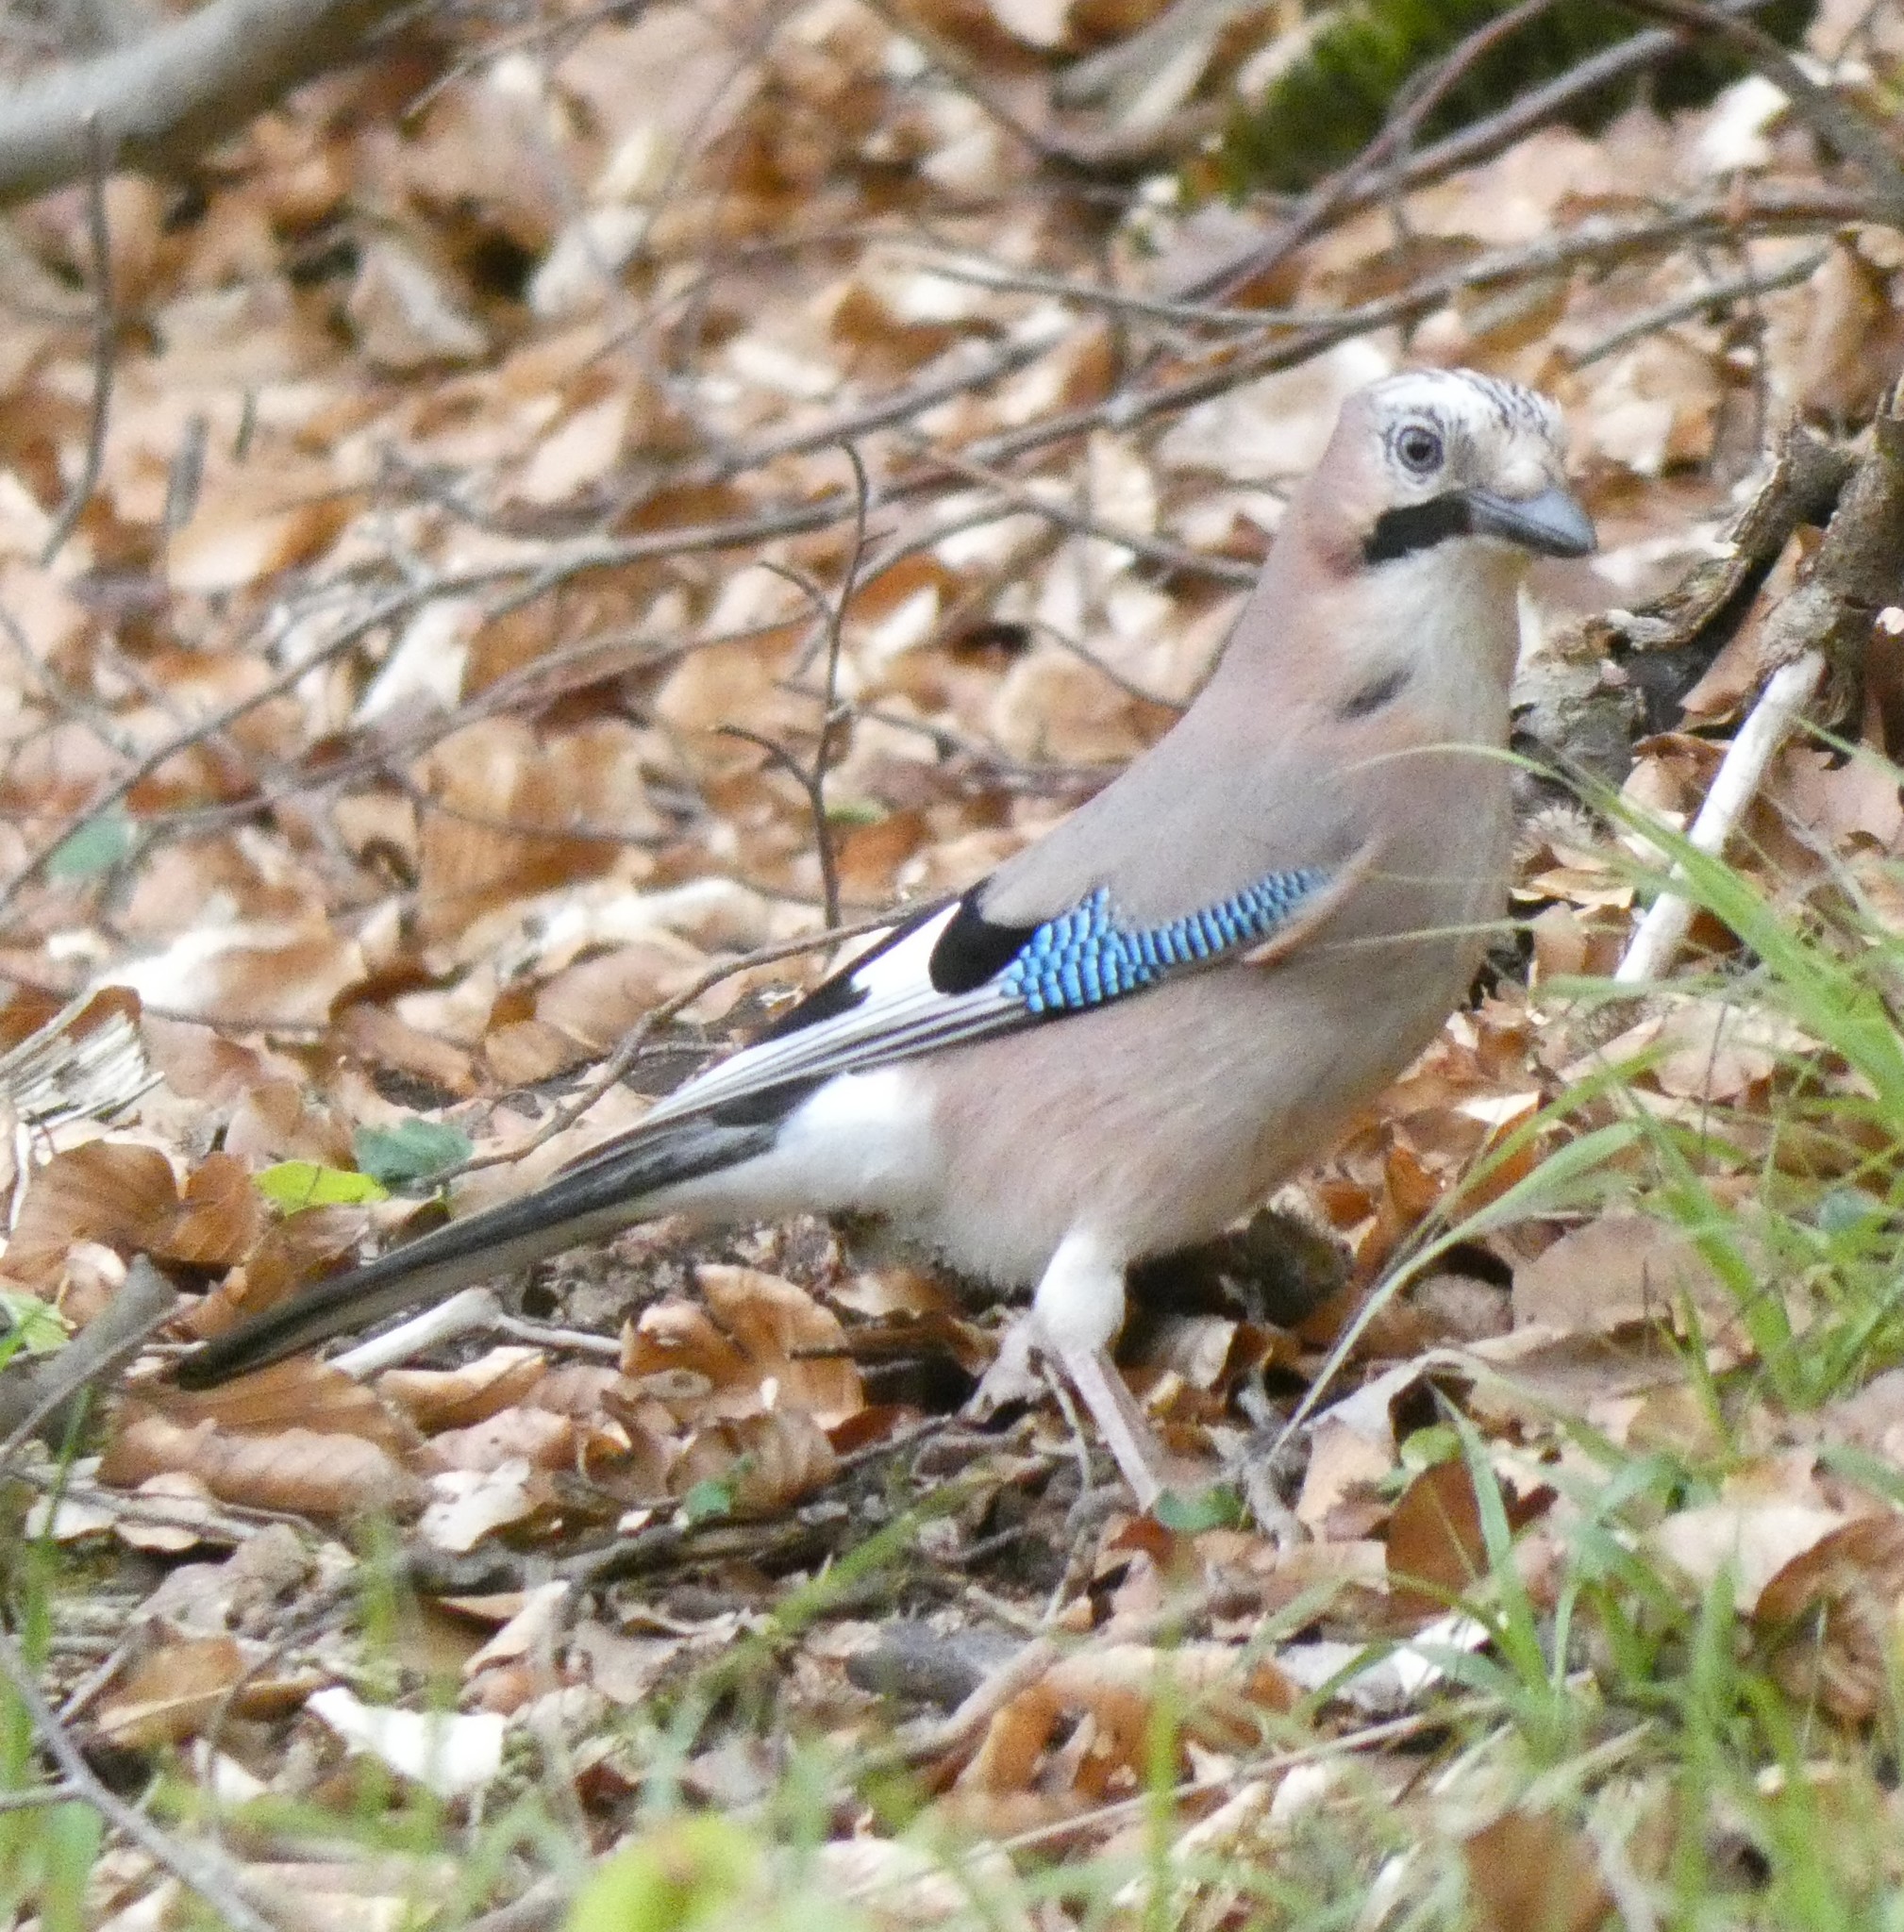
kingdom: Animalia
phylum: Chordata
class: Aves
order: Passeriformes
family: Corvidae
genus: Garrulus
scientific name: Garrulus glandarius
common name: Eurasian jay
